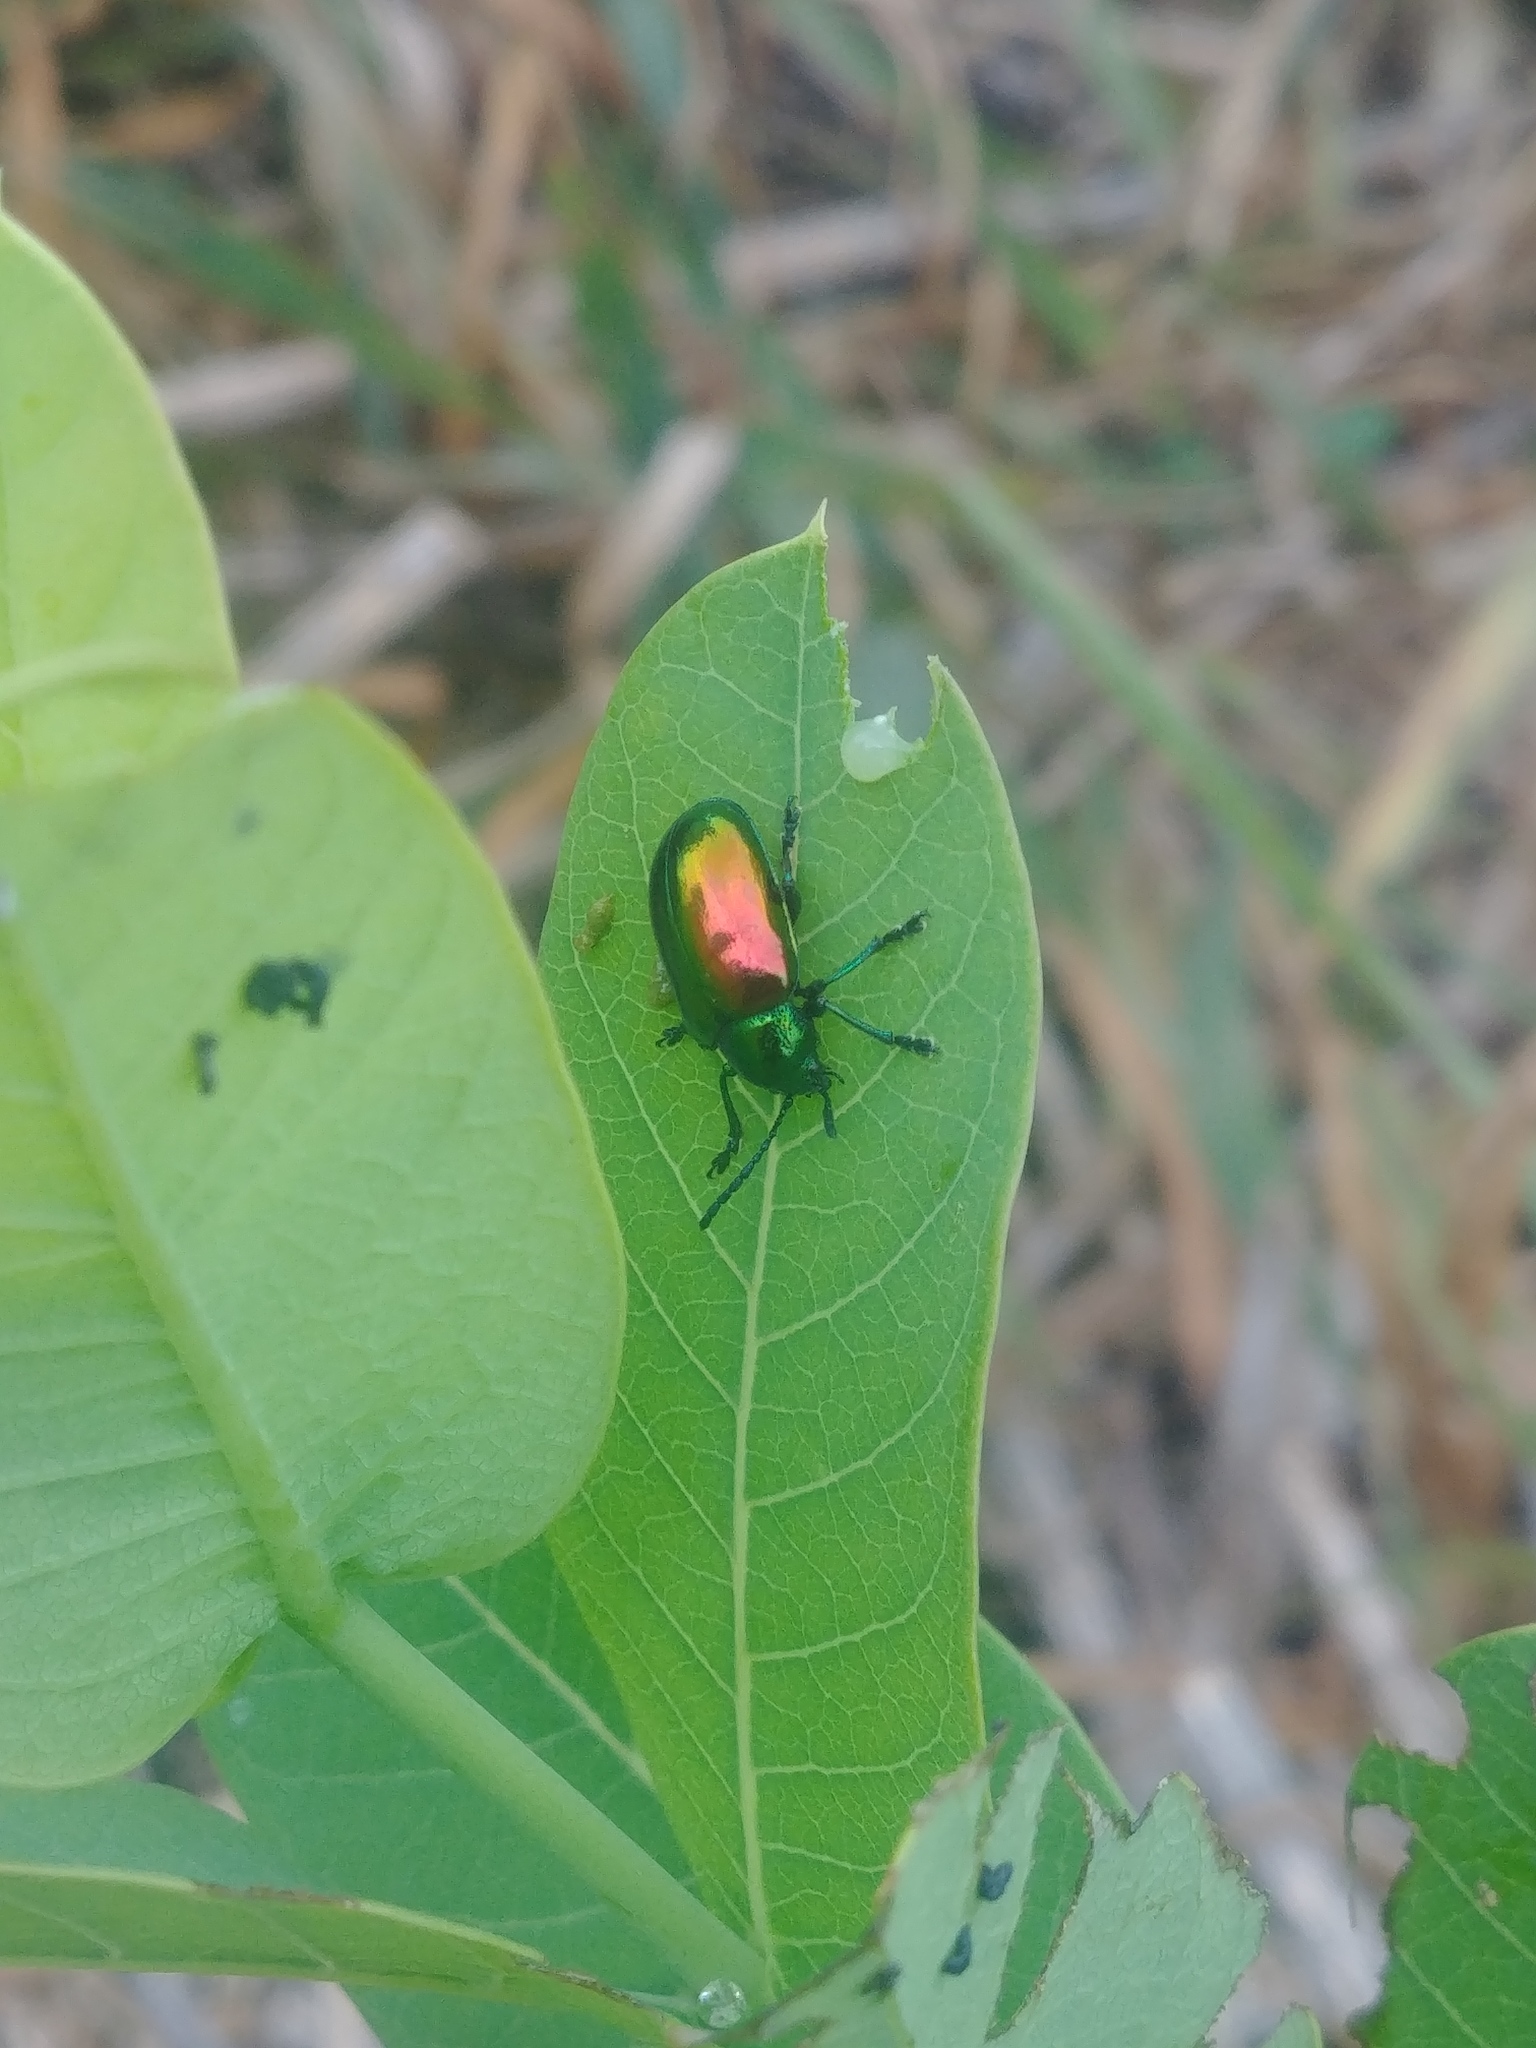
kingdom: Animalia
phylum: Arthropoda
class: Insecta
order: Coleoptera
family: Chrysomelidae
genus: Chrysochus
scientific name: Chrysochus auratus
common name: Dogbane leaf beetle
